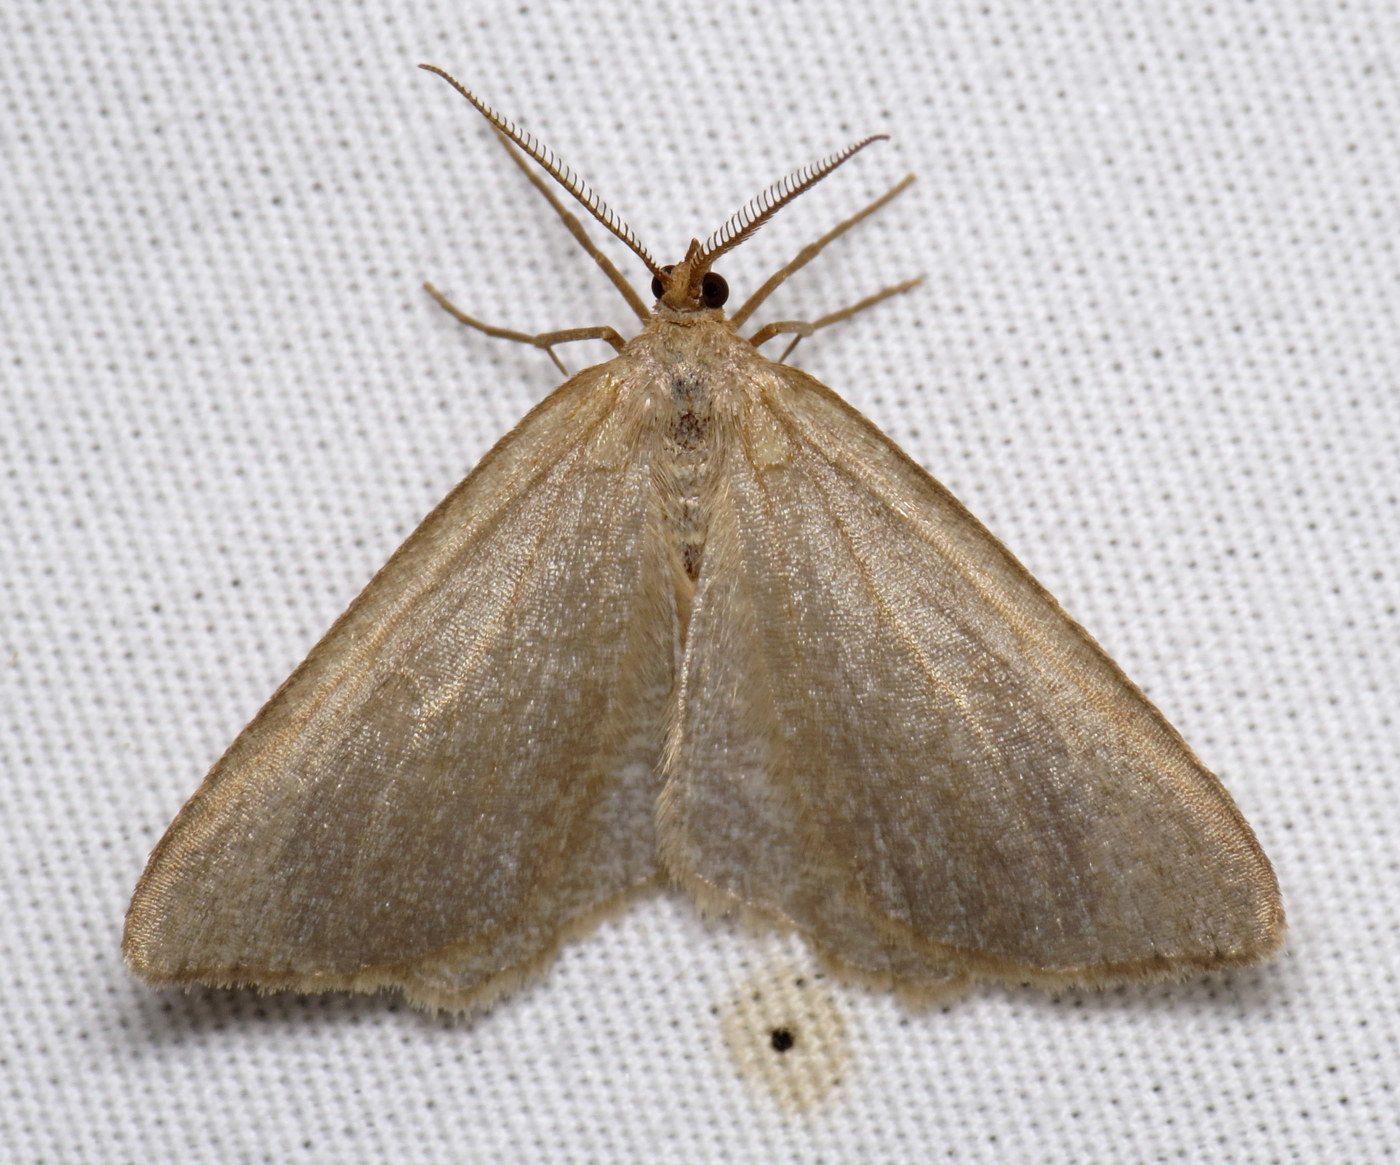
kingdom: Animalia
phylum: Arthropoda
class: Insecta
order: Lepidoptera
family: Geometridae
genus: Macaria
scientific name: Macaria argillacearia
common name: Mousy angle
